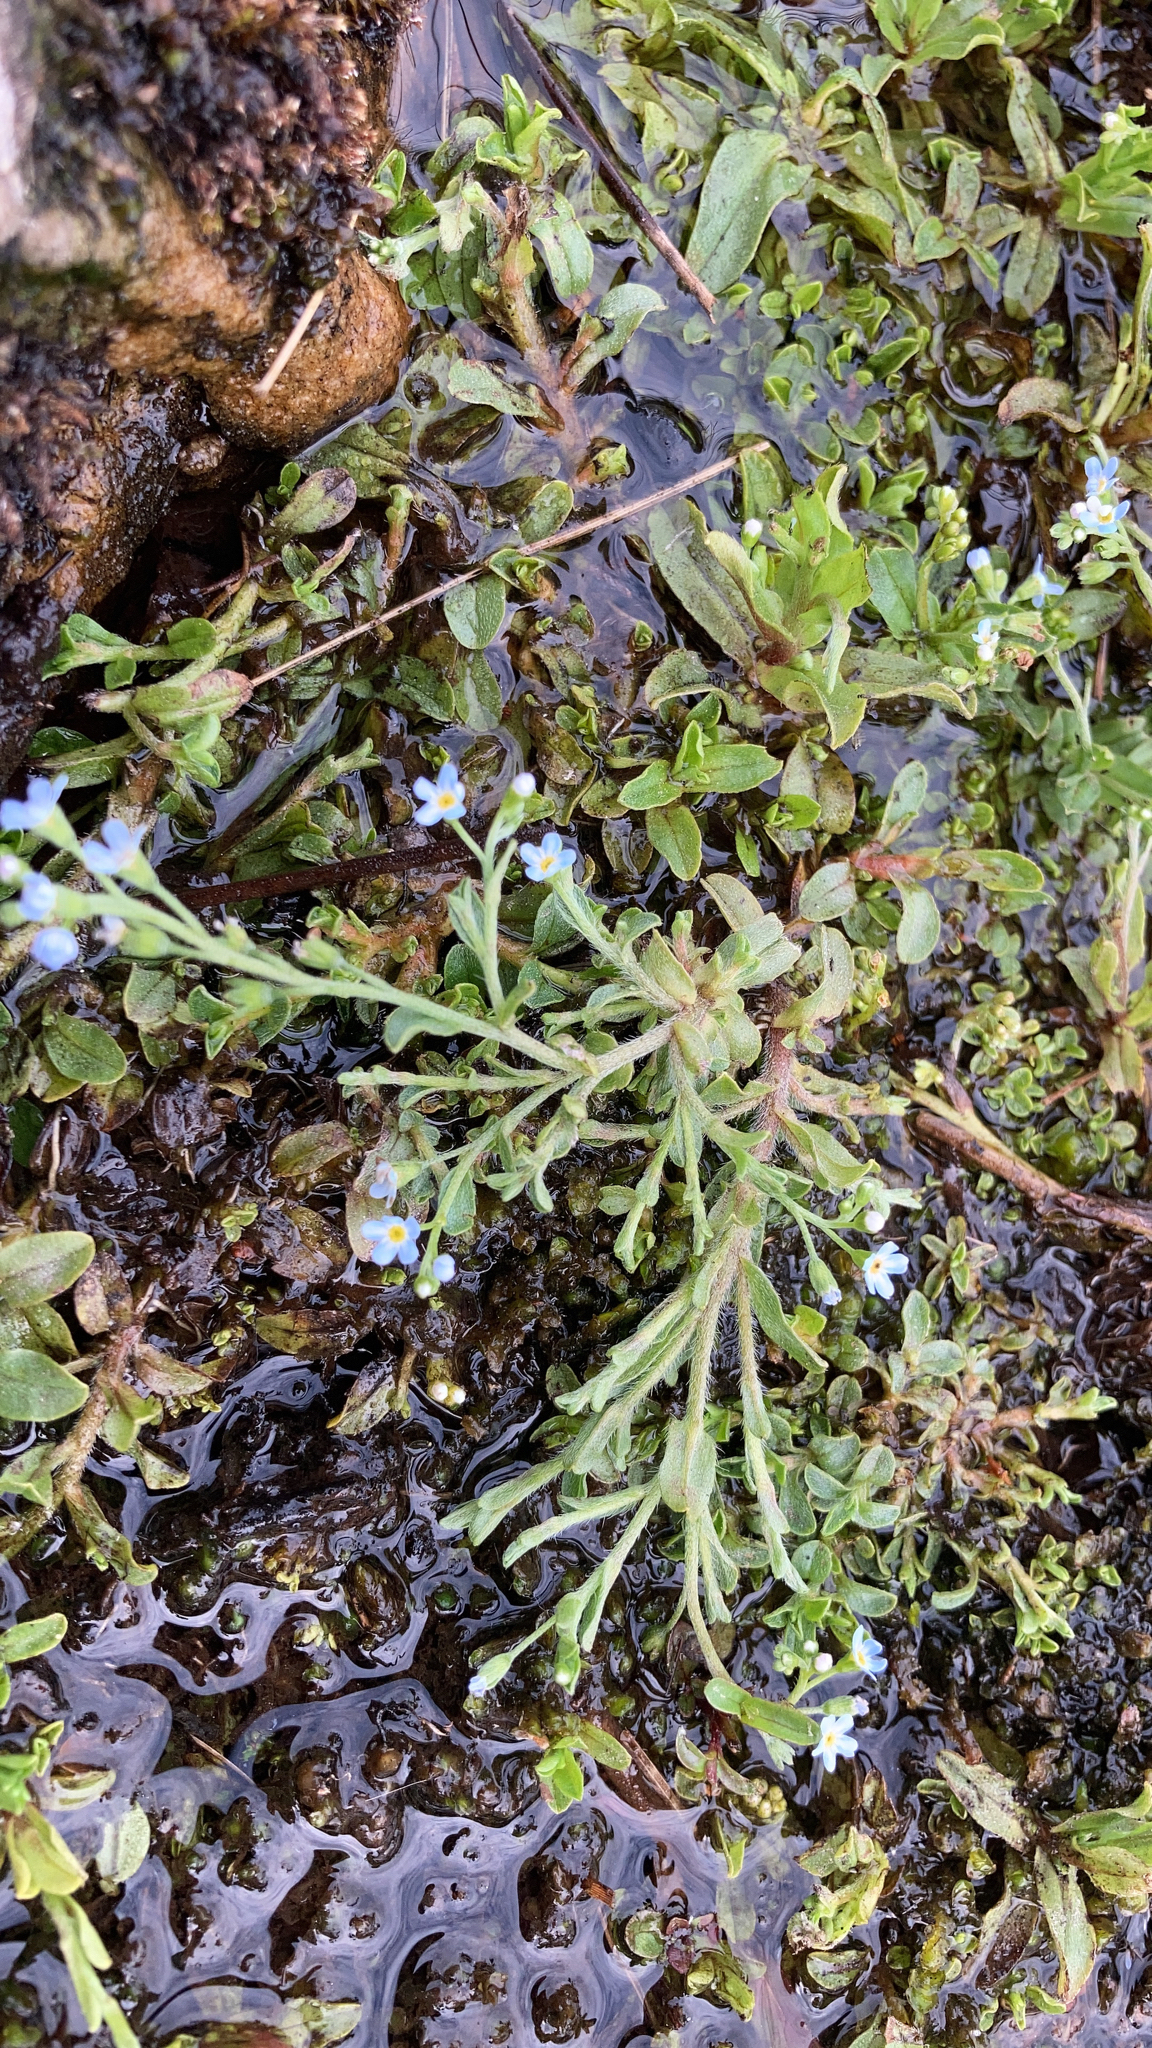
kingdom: Plantae
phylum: Tracheophyta
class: Magnoliopsida
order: Boraginales
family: Boraginaceae
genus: Myosotis
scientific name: Myosotis laxa
